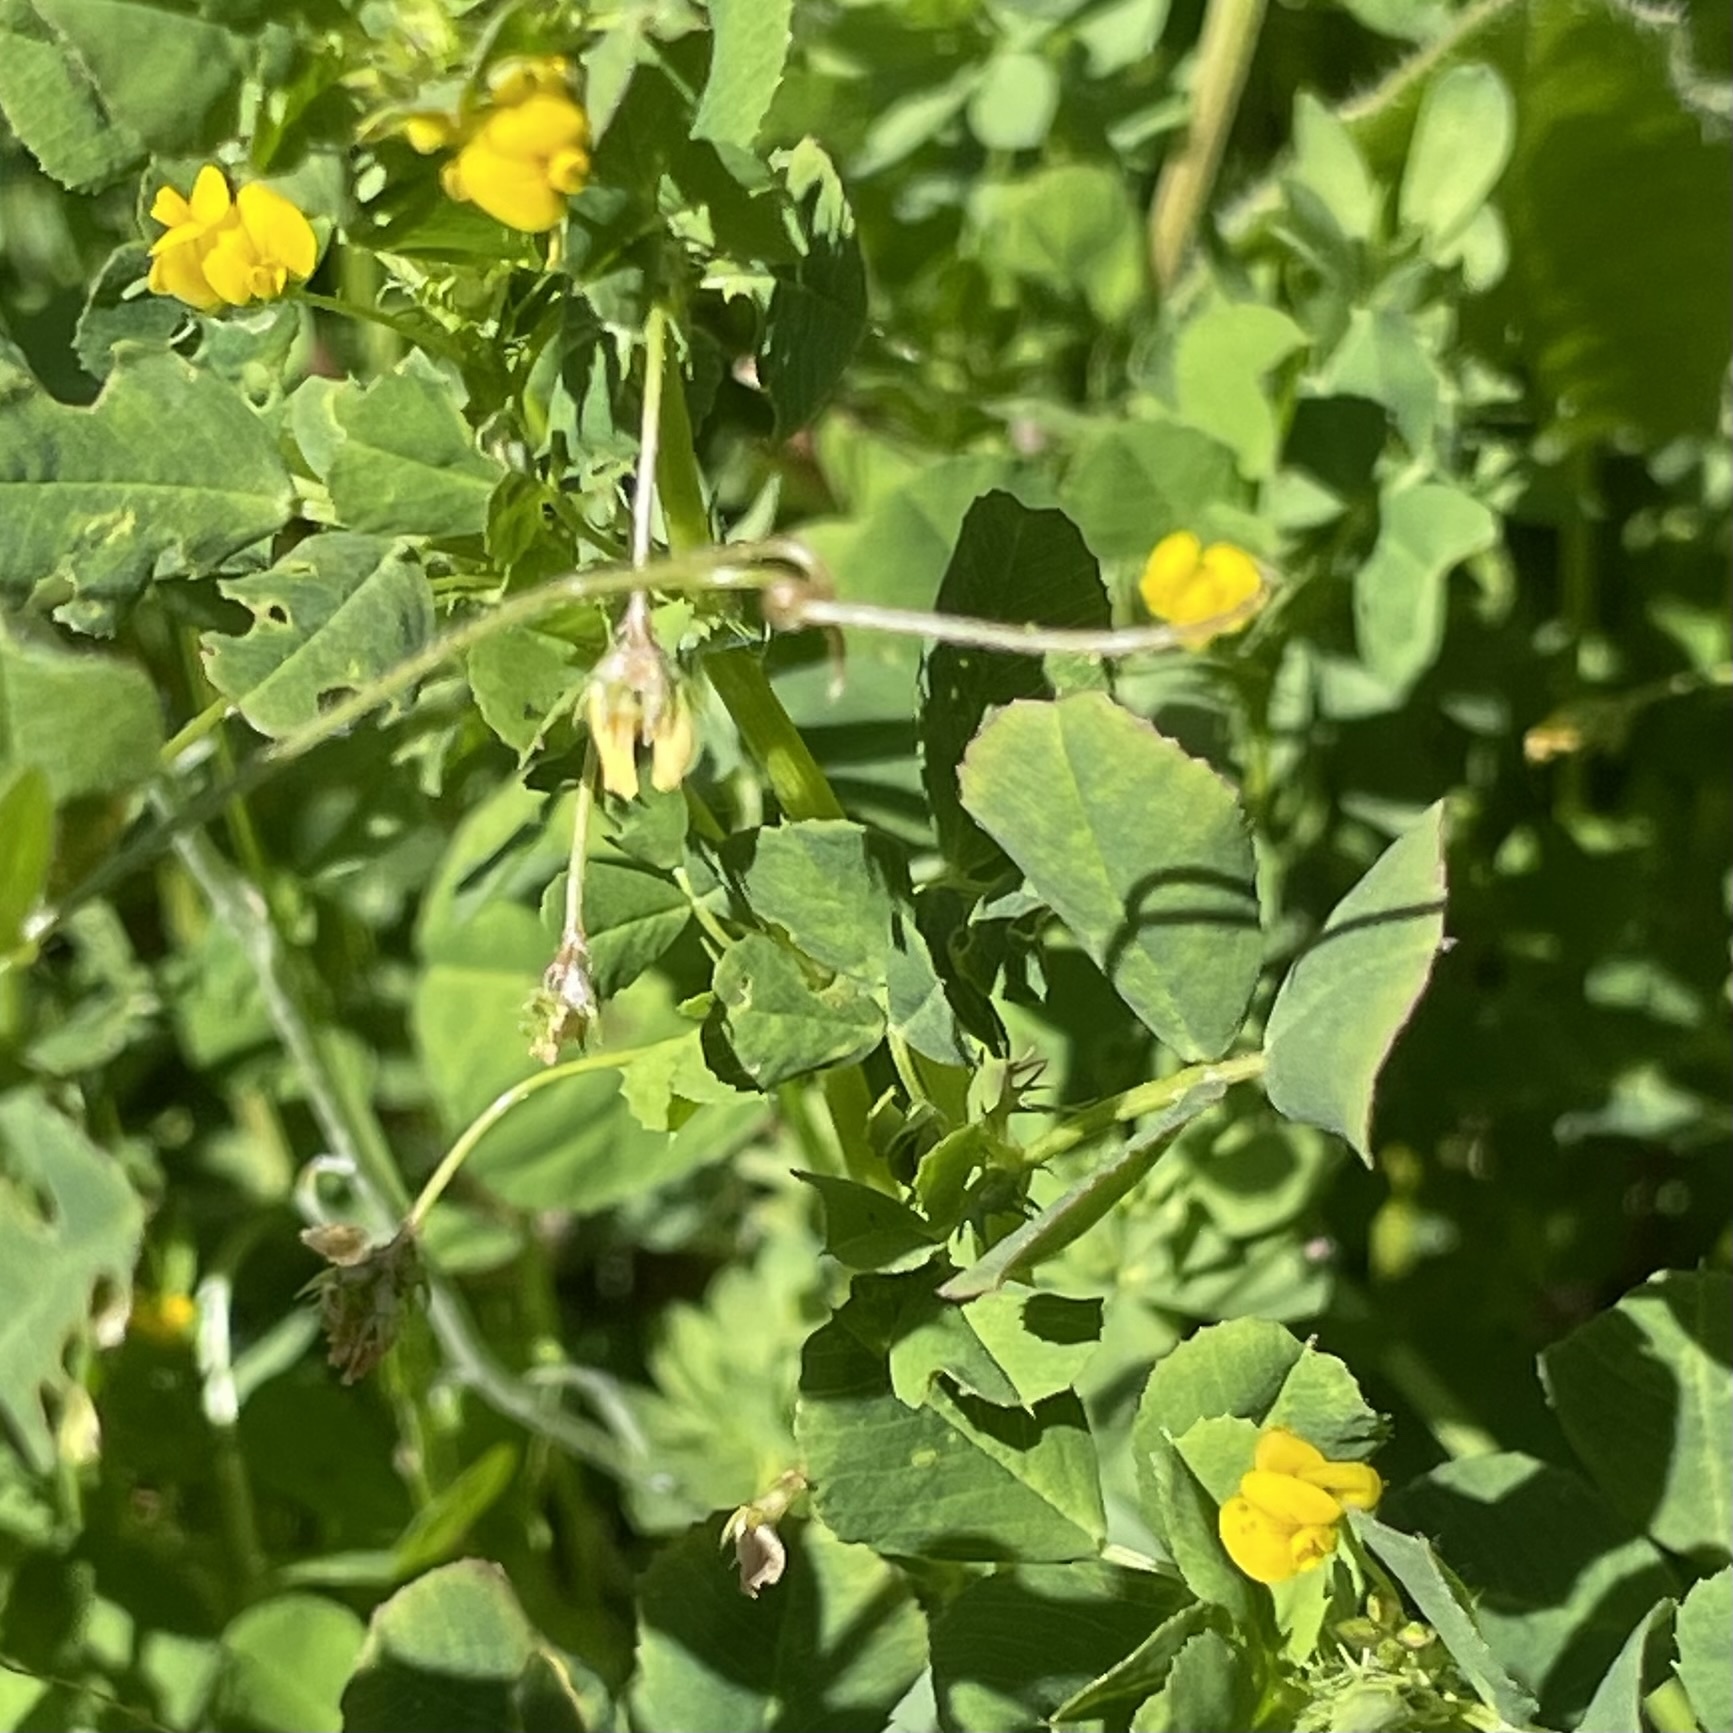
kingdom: Plantae
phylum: Tracheophyta
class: Magnoliopsida
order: Fabales
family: Fabaceae
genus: Medicago
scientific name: Medicago polymorpha
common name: Burclover
